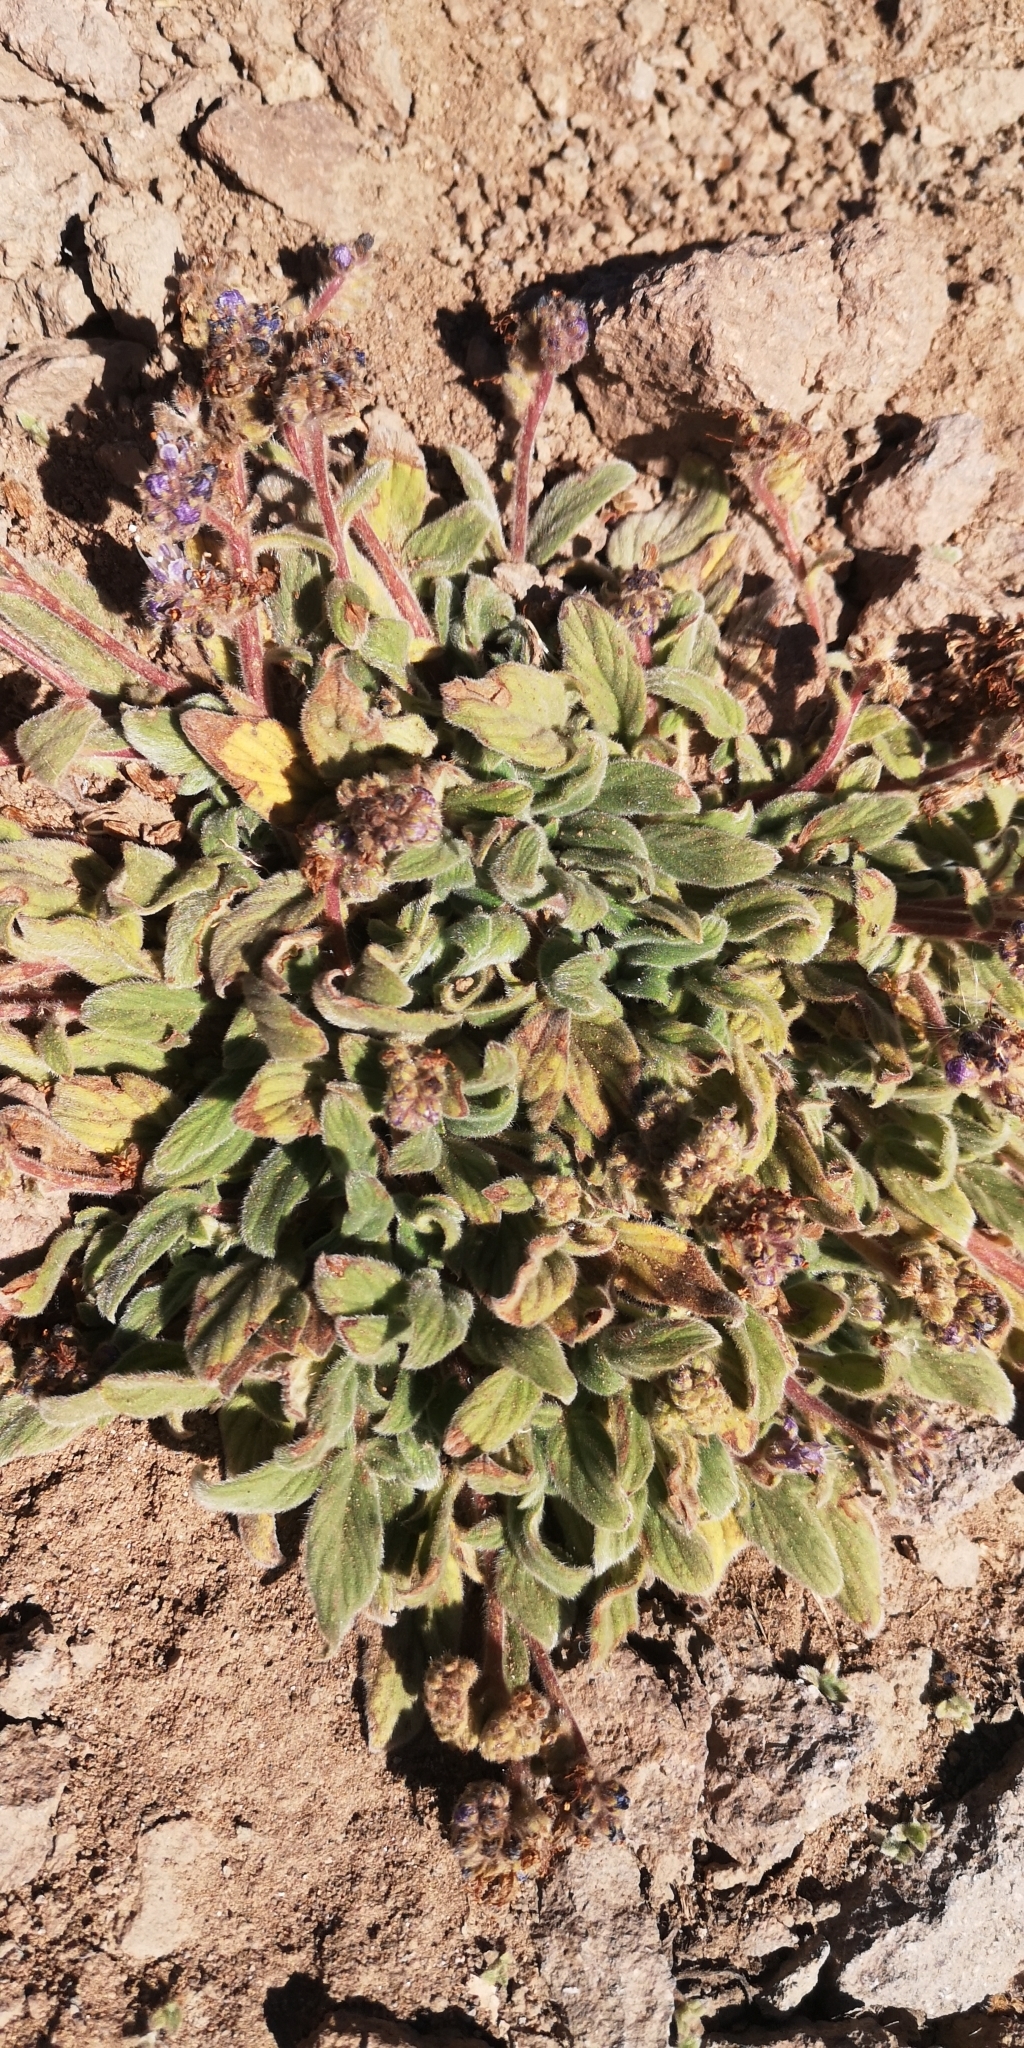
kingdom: Plantae
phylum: Tracheophyta
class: Magnoliopsida
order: Boraginales
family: Hydrophyllaceae
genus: Phacelia
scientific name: Phacelia secunda
